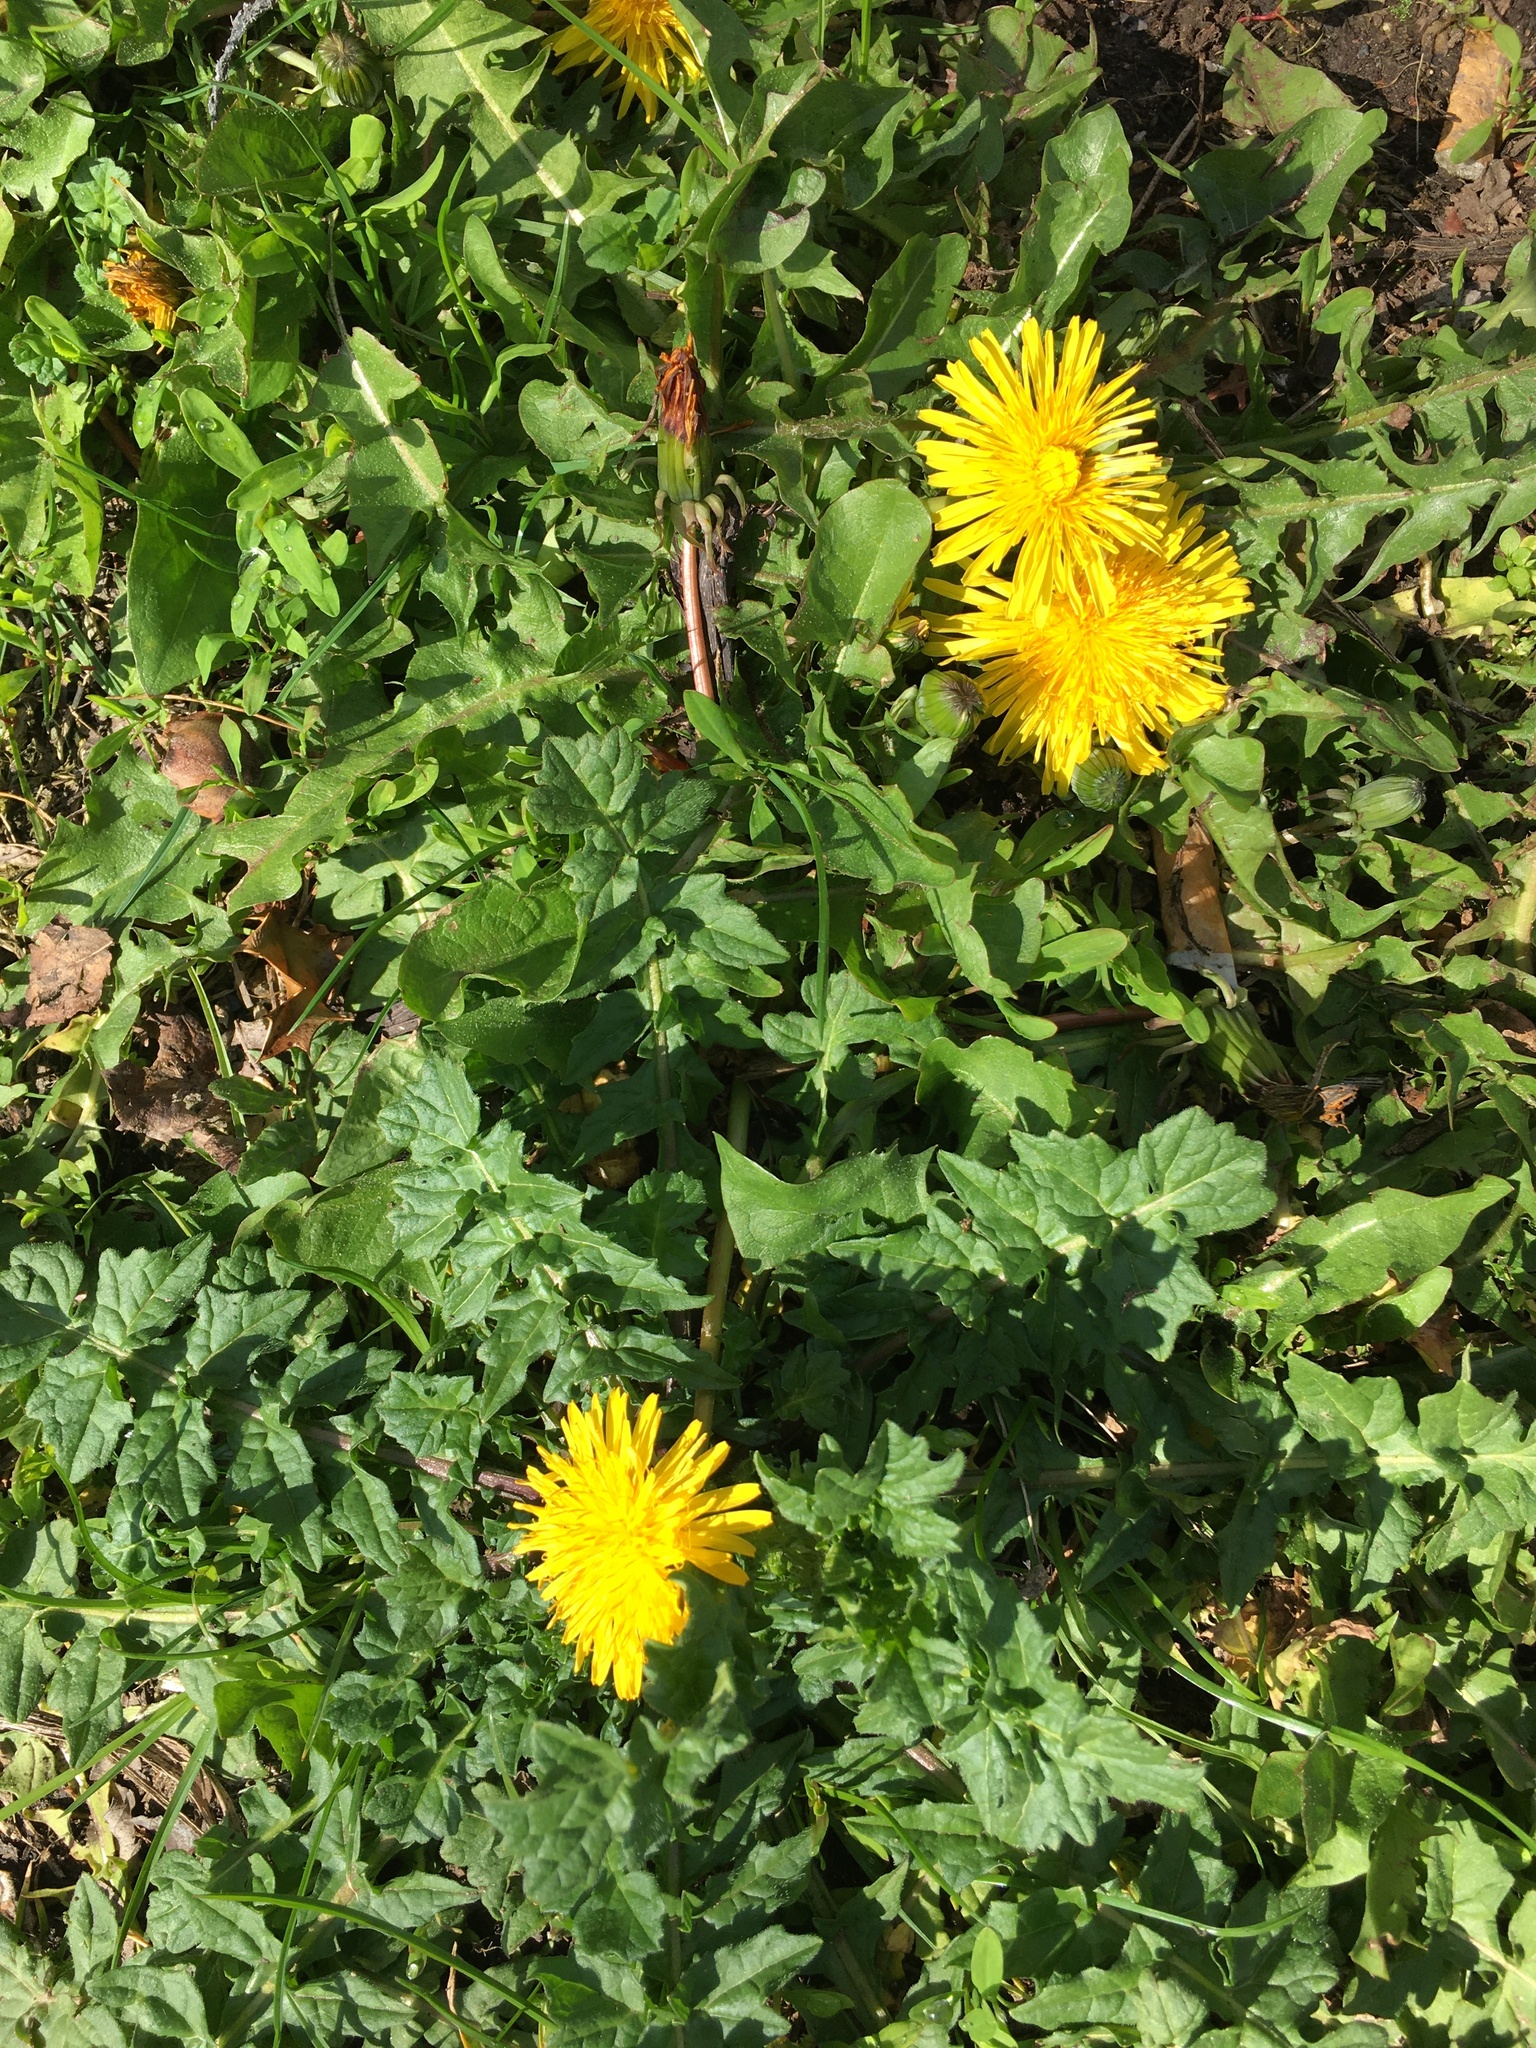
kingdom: Plantae
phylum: Tracheophyta
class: Magnoliopsida
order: Asterales
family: Asteraceae
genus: Taraxacum
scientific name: Taraxacum officinale
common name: Common dandelion
